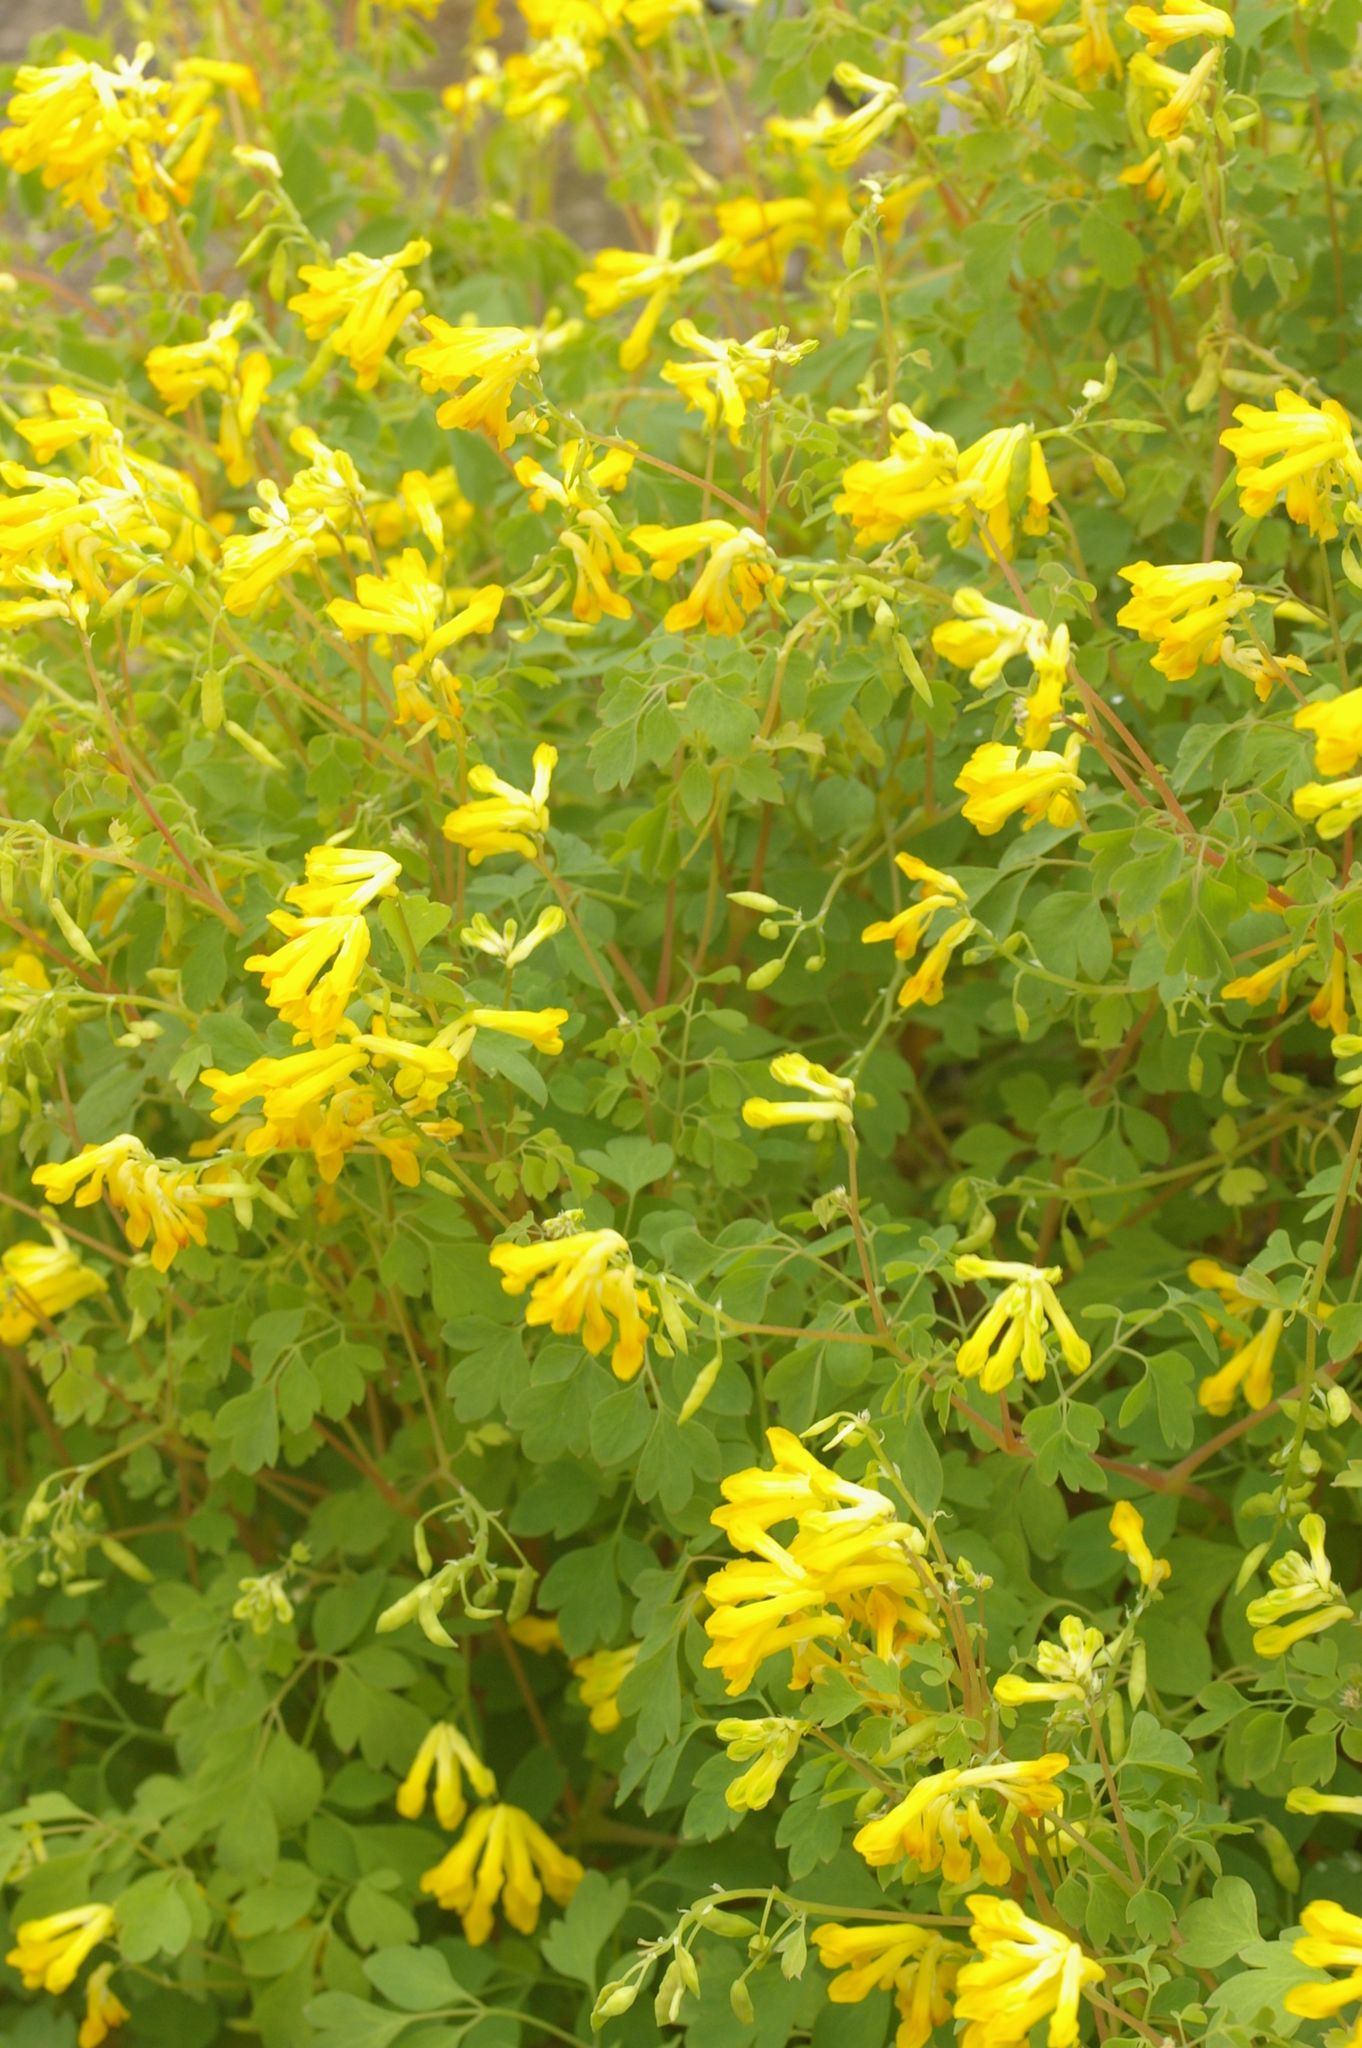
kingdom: Plantae
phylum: Tracheophyta
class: Magnoliopsida
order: Ranunculales
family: Papaveraceae
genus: Pseudofumaria
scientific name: Pseudofumaria lutea
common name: Yellow corydalis
